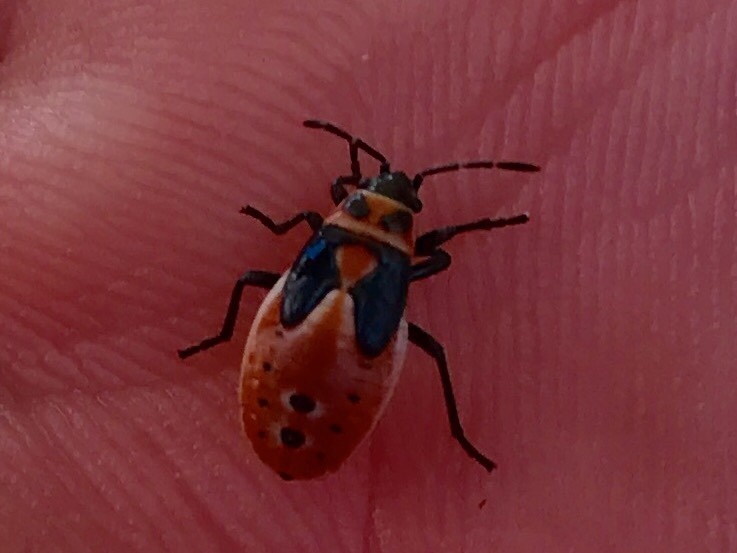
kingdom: Animalia
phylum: Arthropoda
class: Insecta
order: Hemiptera
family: Lygaeidae
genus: Lygaeus
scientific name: Lygaeus kalmii
